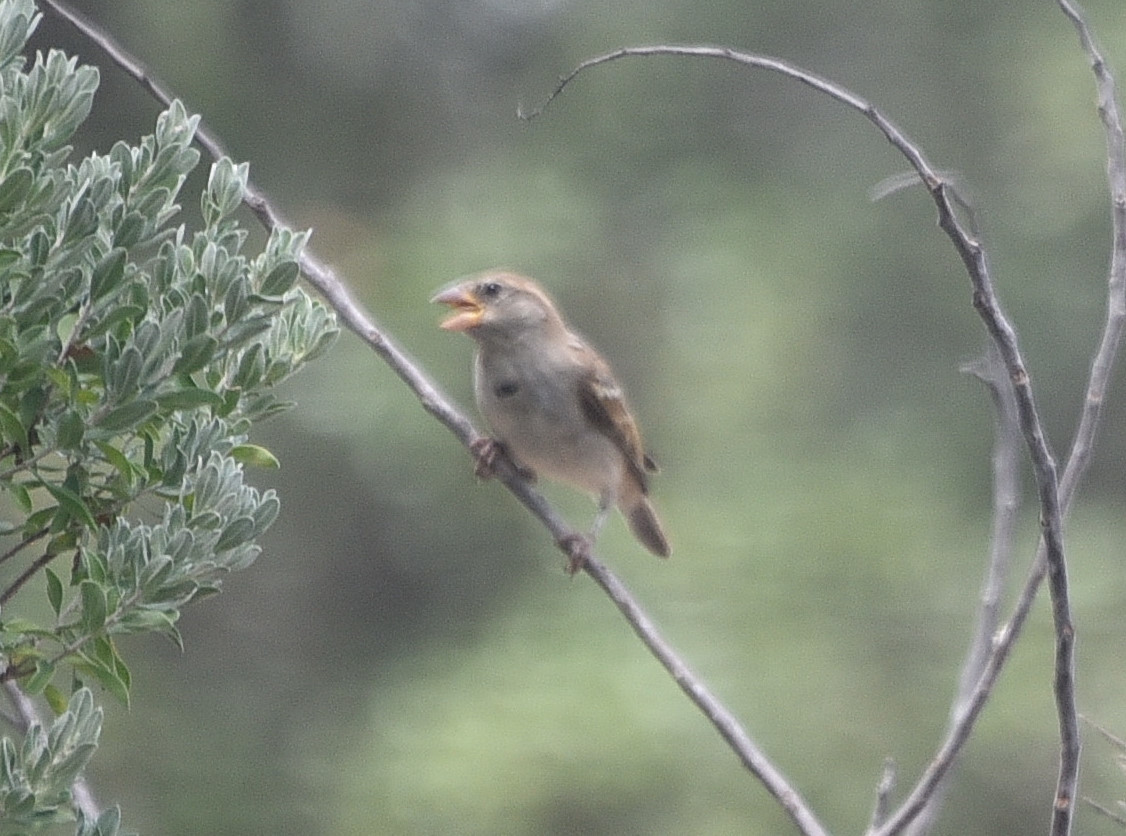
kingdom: Animalia
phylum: Chordata
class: Aves
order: Passeriformes
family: Passeridae
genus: Passer
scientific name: Passer domesticus
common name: House sparrow
